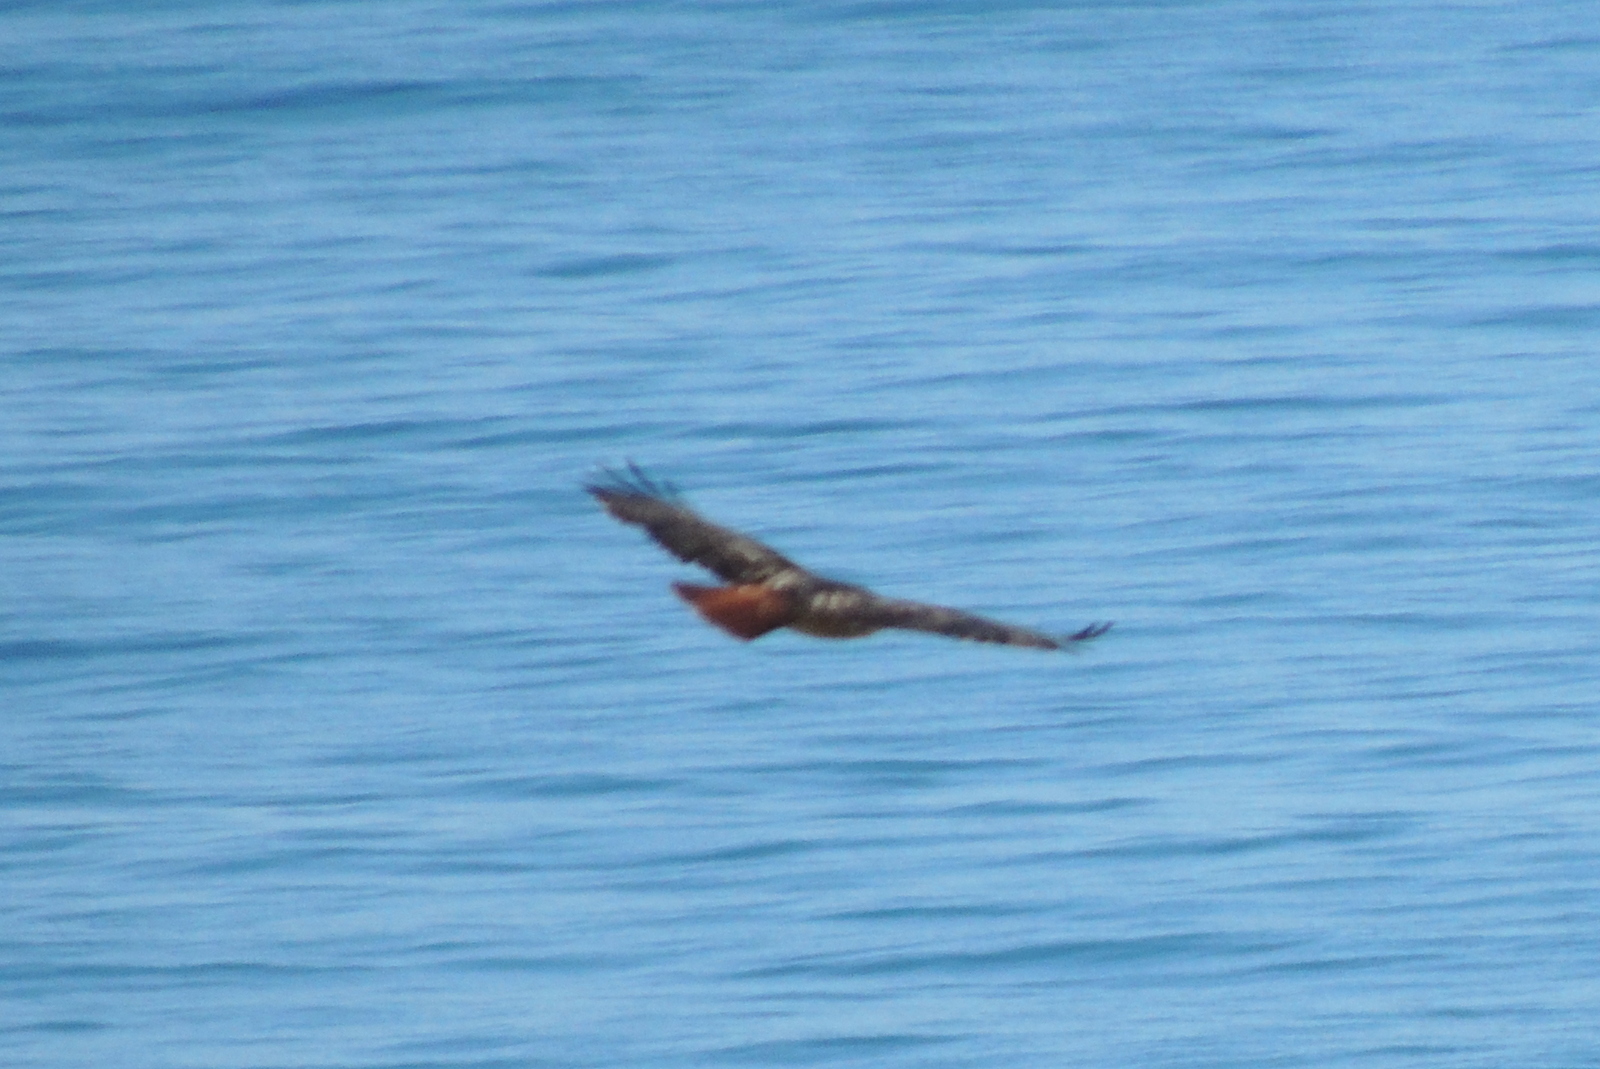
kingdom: Animalia
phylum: Chordata
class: Aves
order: Accipitriformes
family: Accipitridae
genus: Buteo
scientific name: Buteo jamaicensis
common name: Red-tailed hawk
